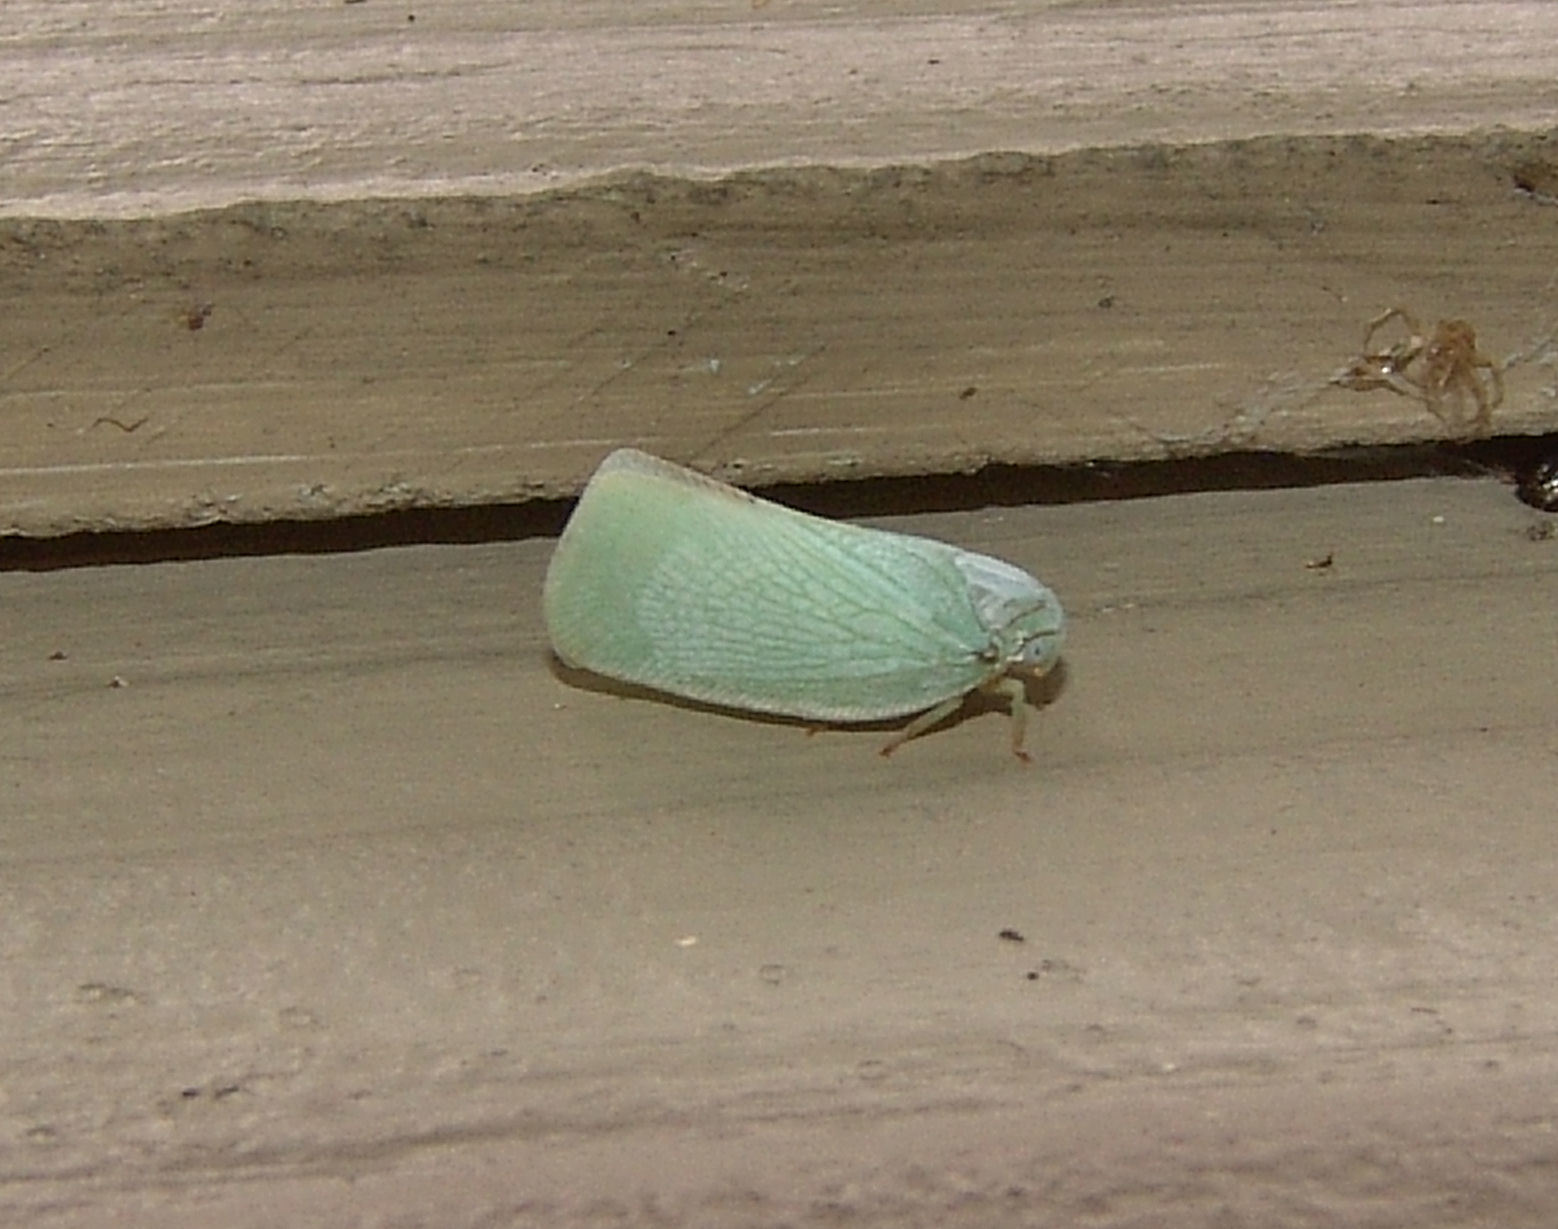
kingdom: Animalia
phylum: Arthropoda
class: Insecta
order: Hemiptera
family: Flatidae
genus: Flatormenis
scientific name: Flatormenis proxima
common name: Northern flatid planthopper
